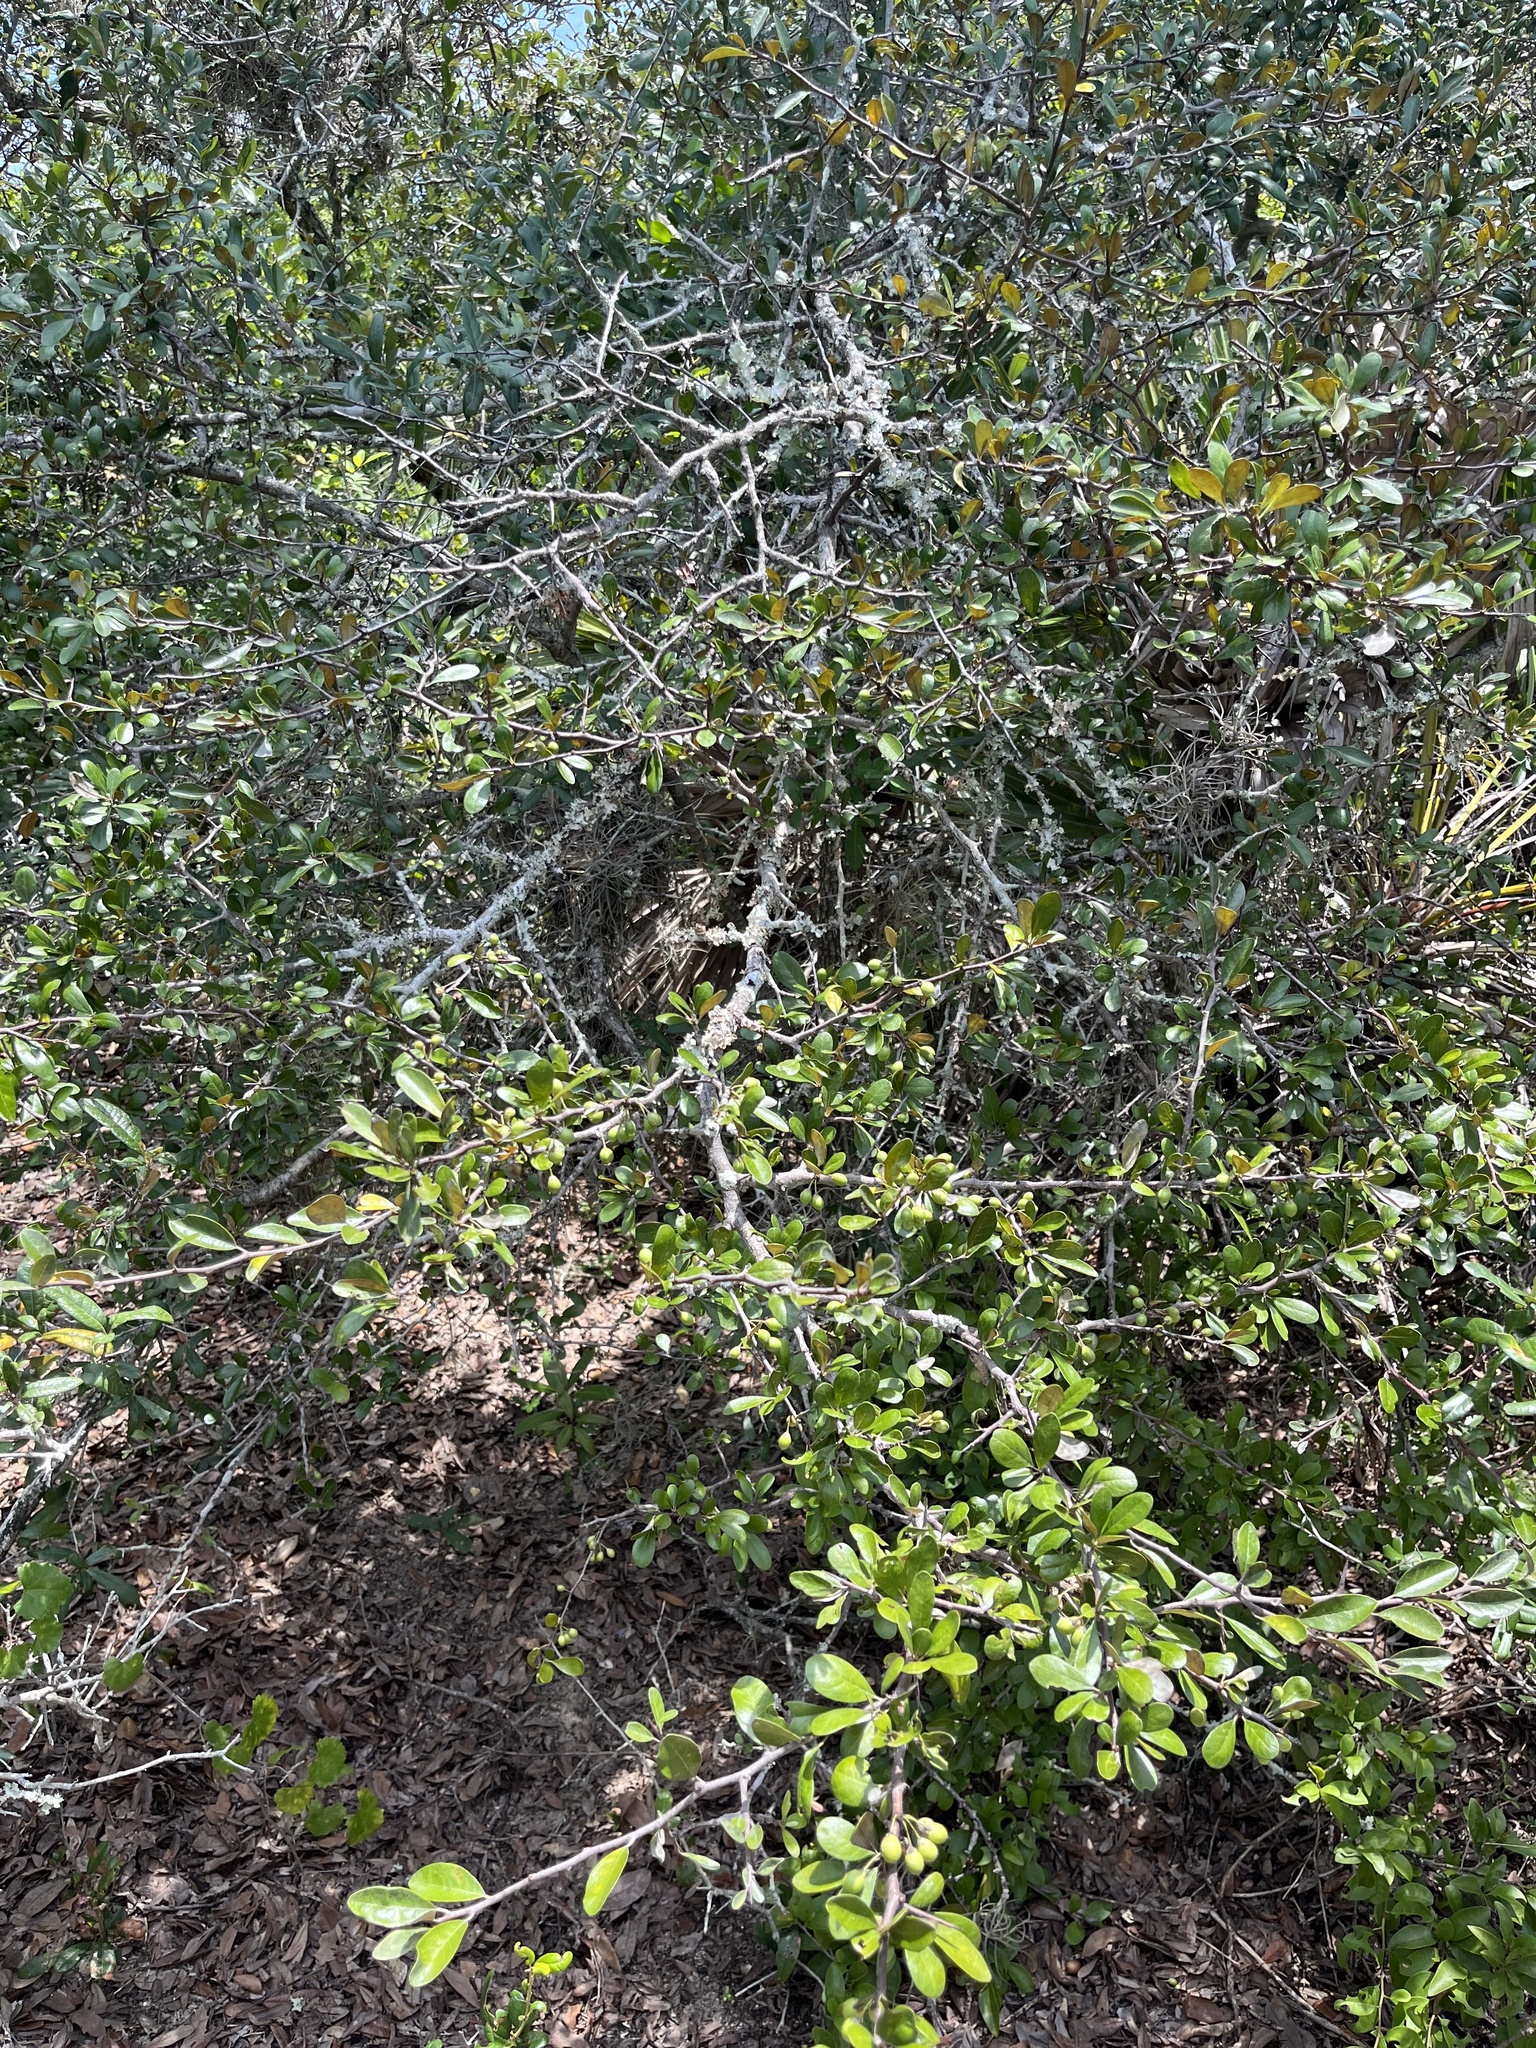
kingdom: Plantae
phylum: Tracheophyta
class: Magnoliopsida
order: Ericales
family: Sapotaceae
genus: Sideroxylon
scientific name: Sideroxylon tenax
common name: Tough-buckthorn
